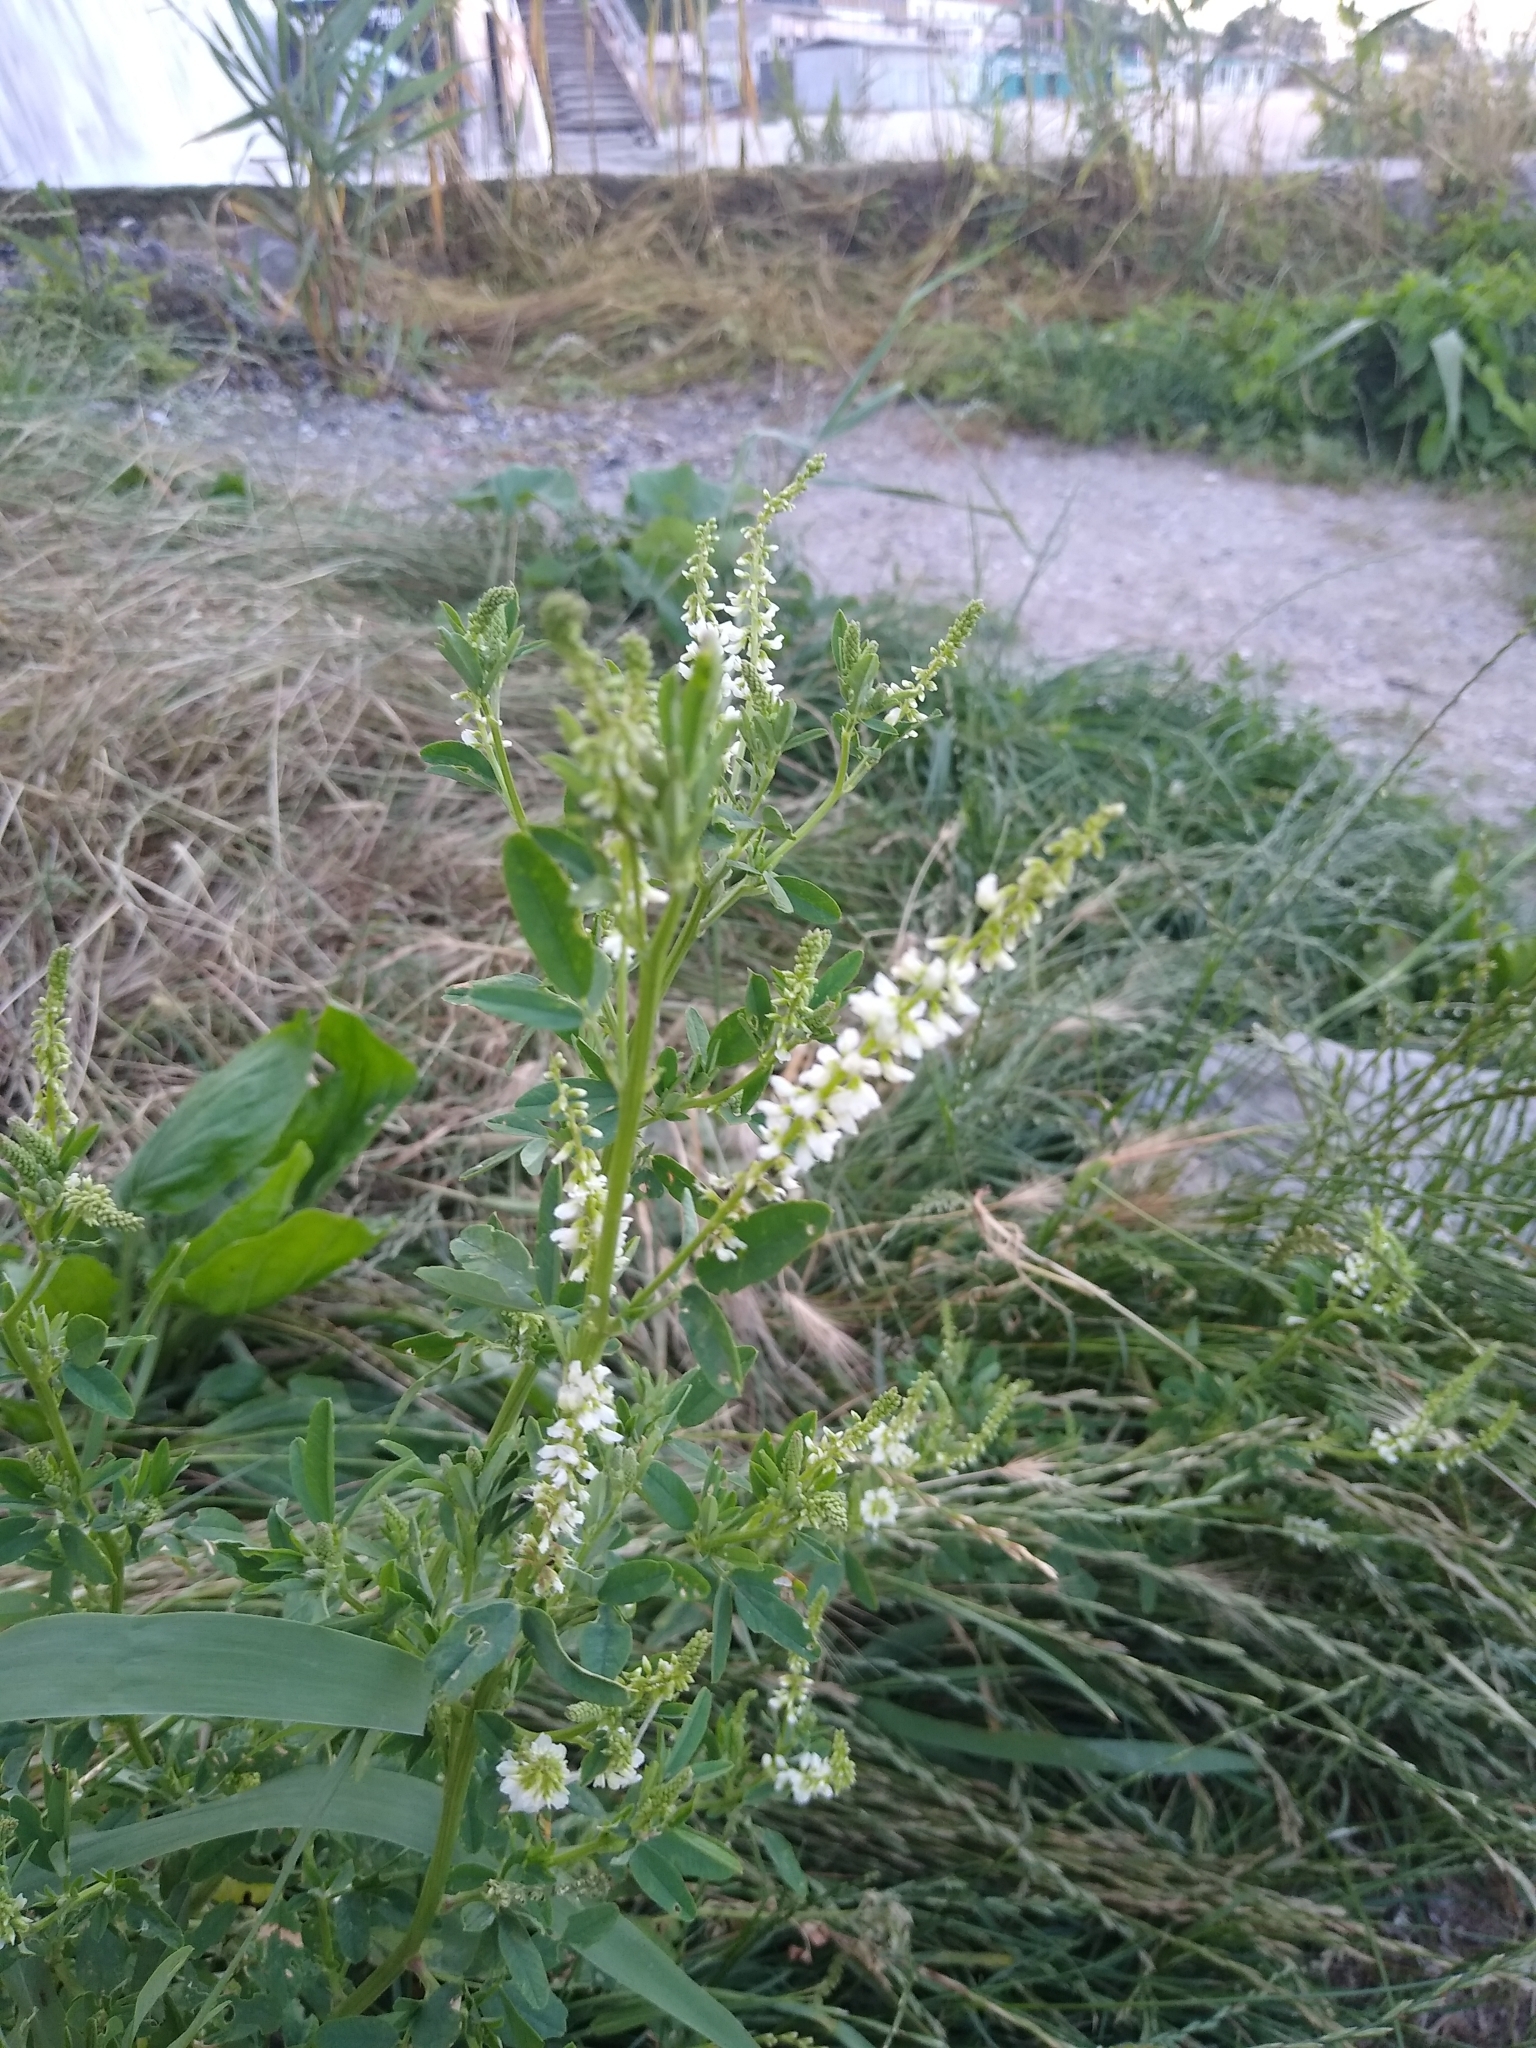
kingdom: Plantae
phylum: Tracheophyta
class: Magnoliopsida
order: Fabales
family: Fabaceae
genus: Melilotus
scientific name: Melilotus albus
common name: White melilot
